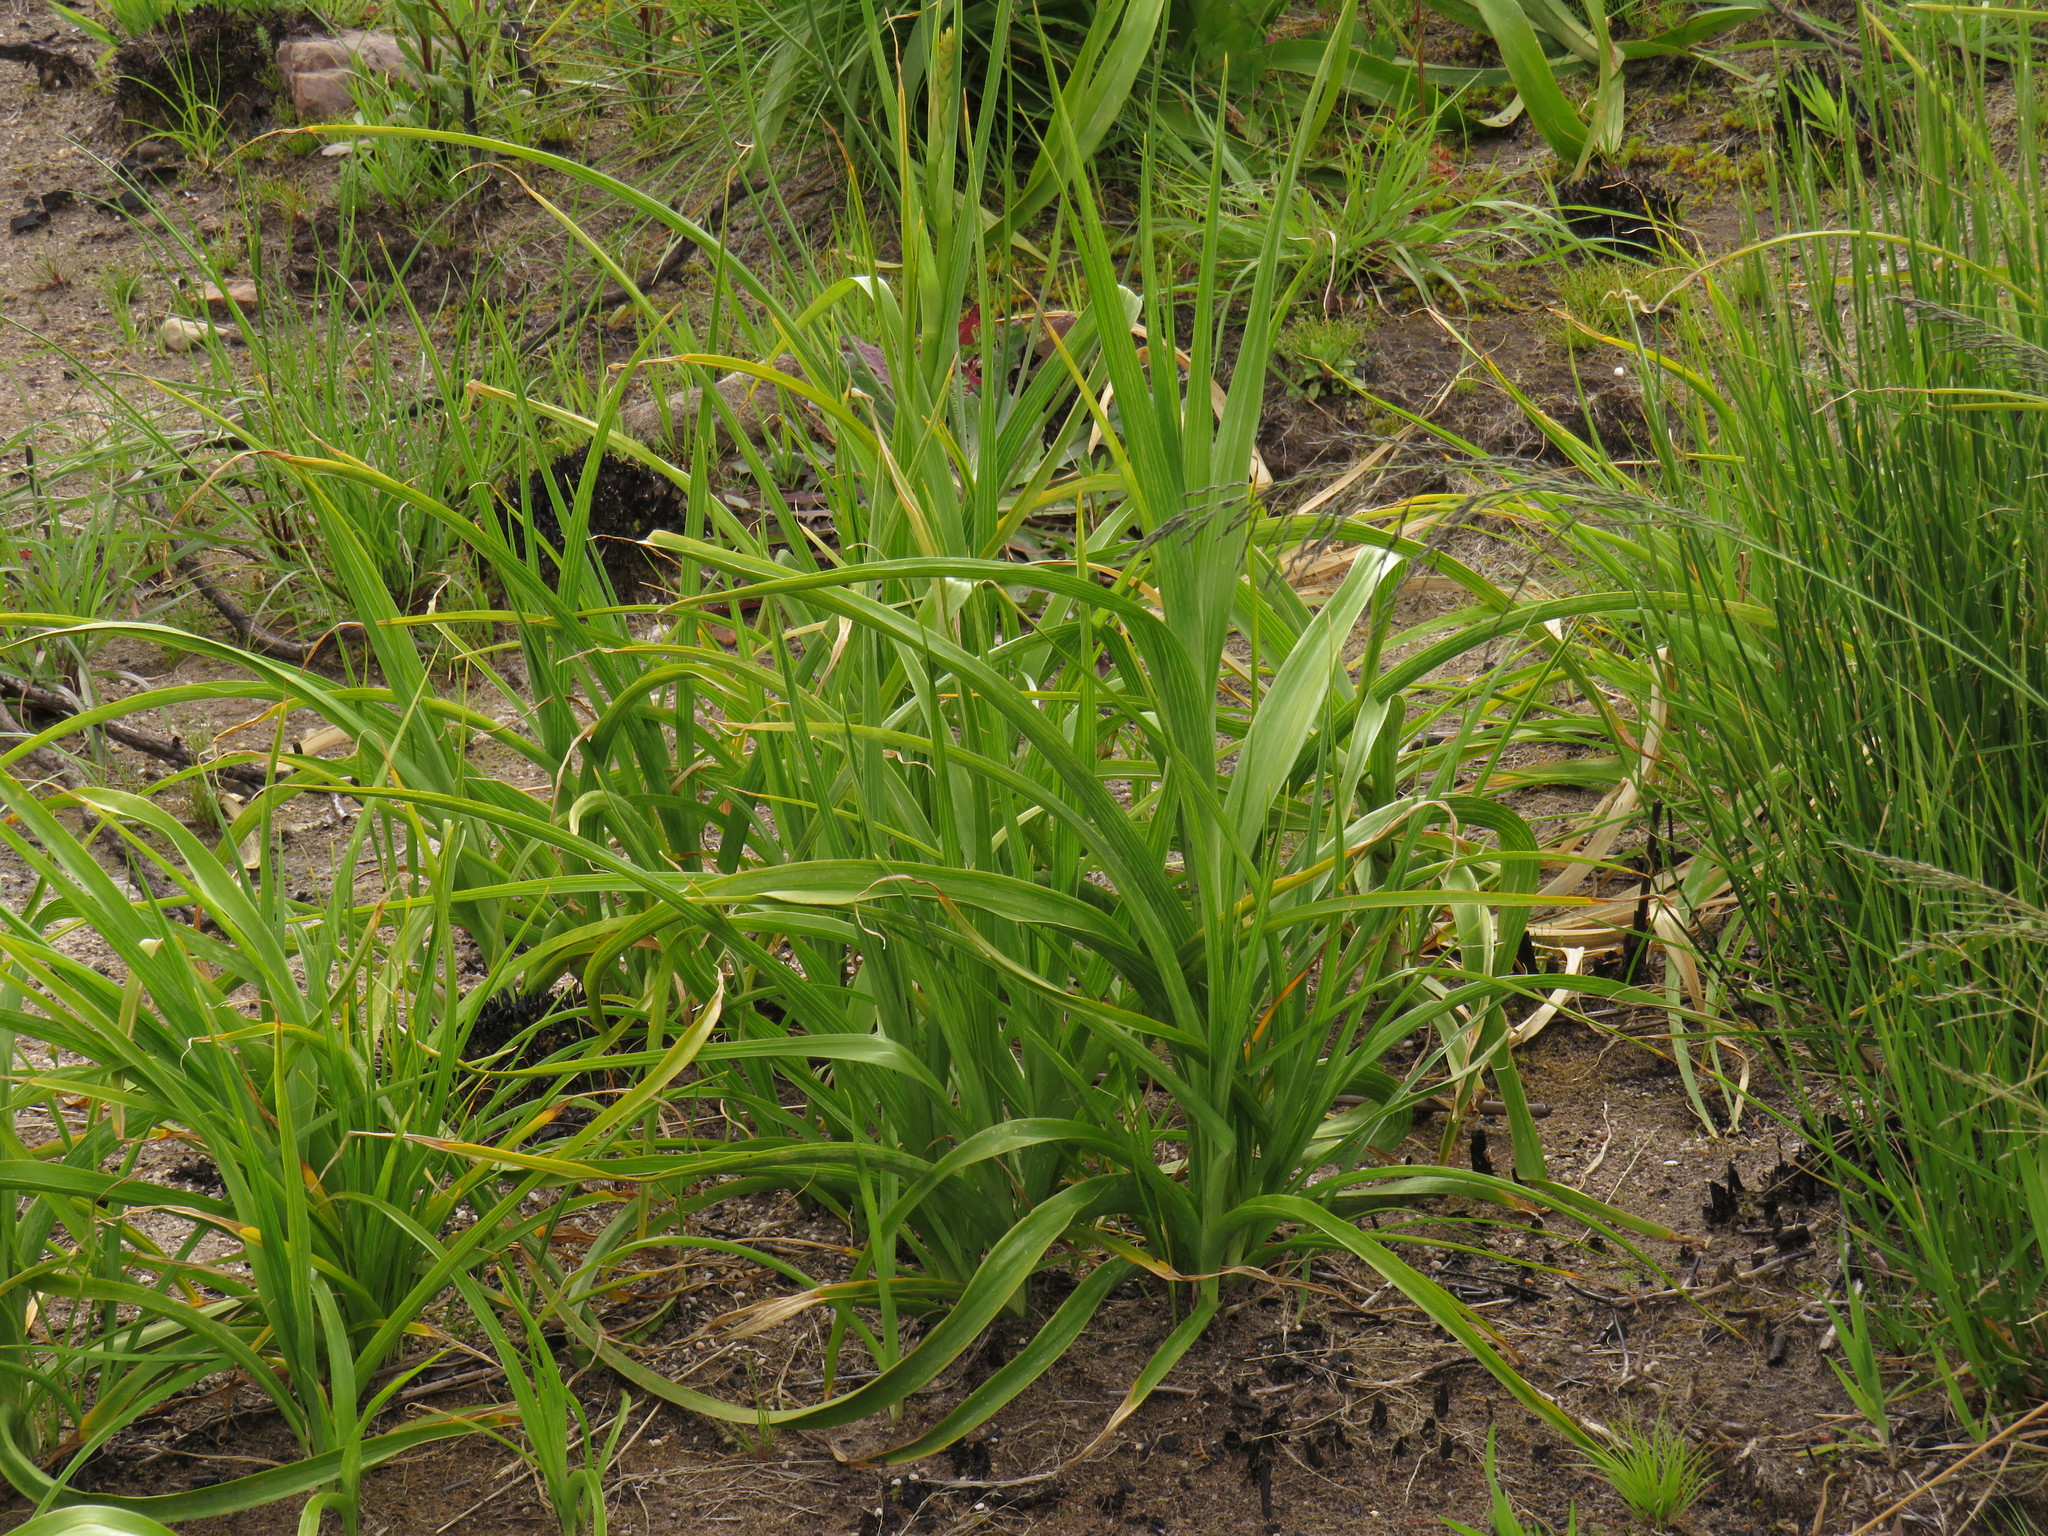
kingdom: Plantae
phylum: Tracheophyta
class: Liliopsida
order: Asparagales
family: Iridaceae
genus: Moraea
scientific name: Moraea ramosissima
